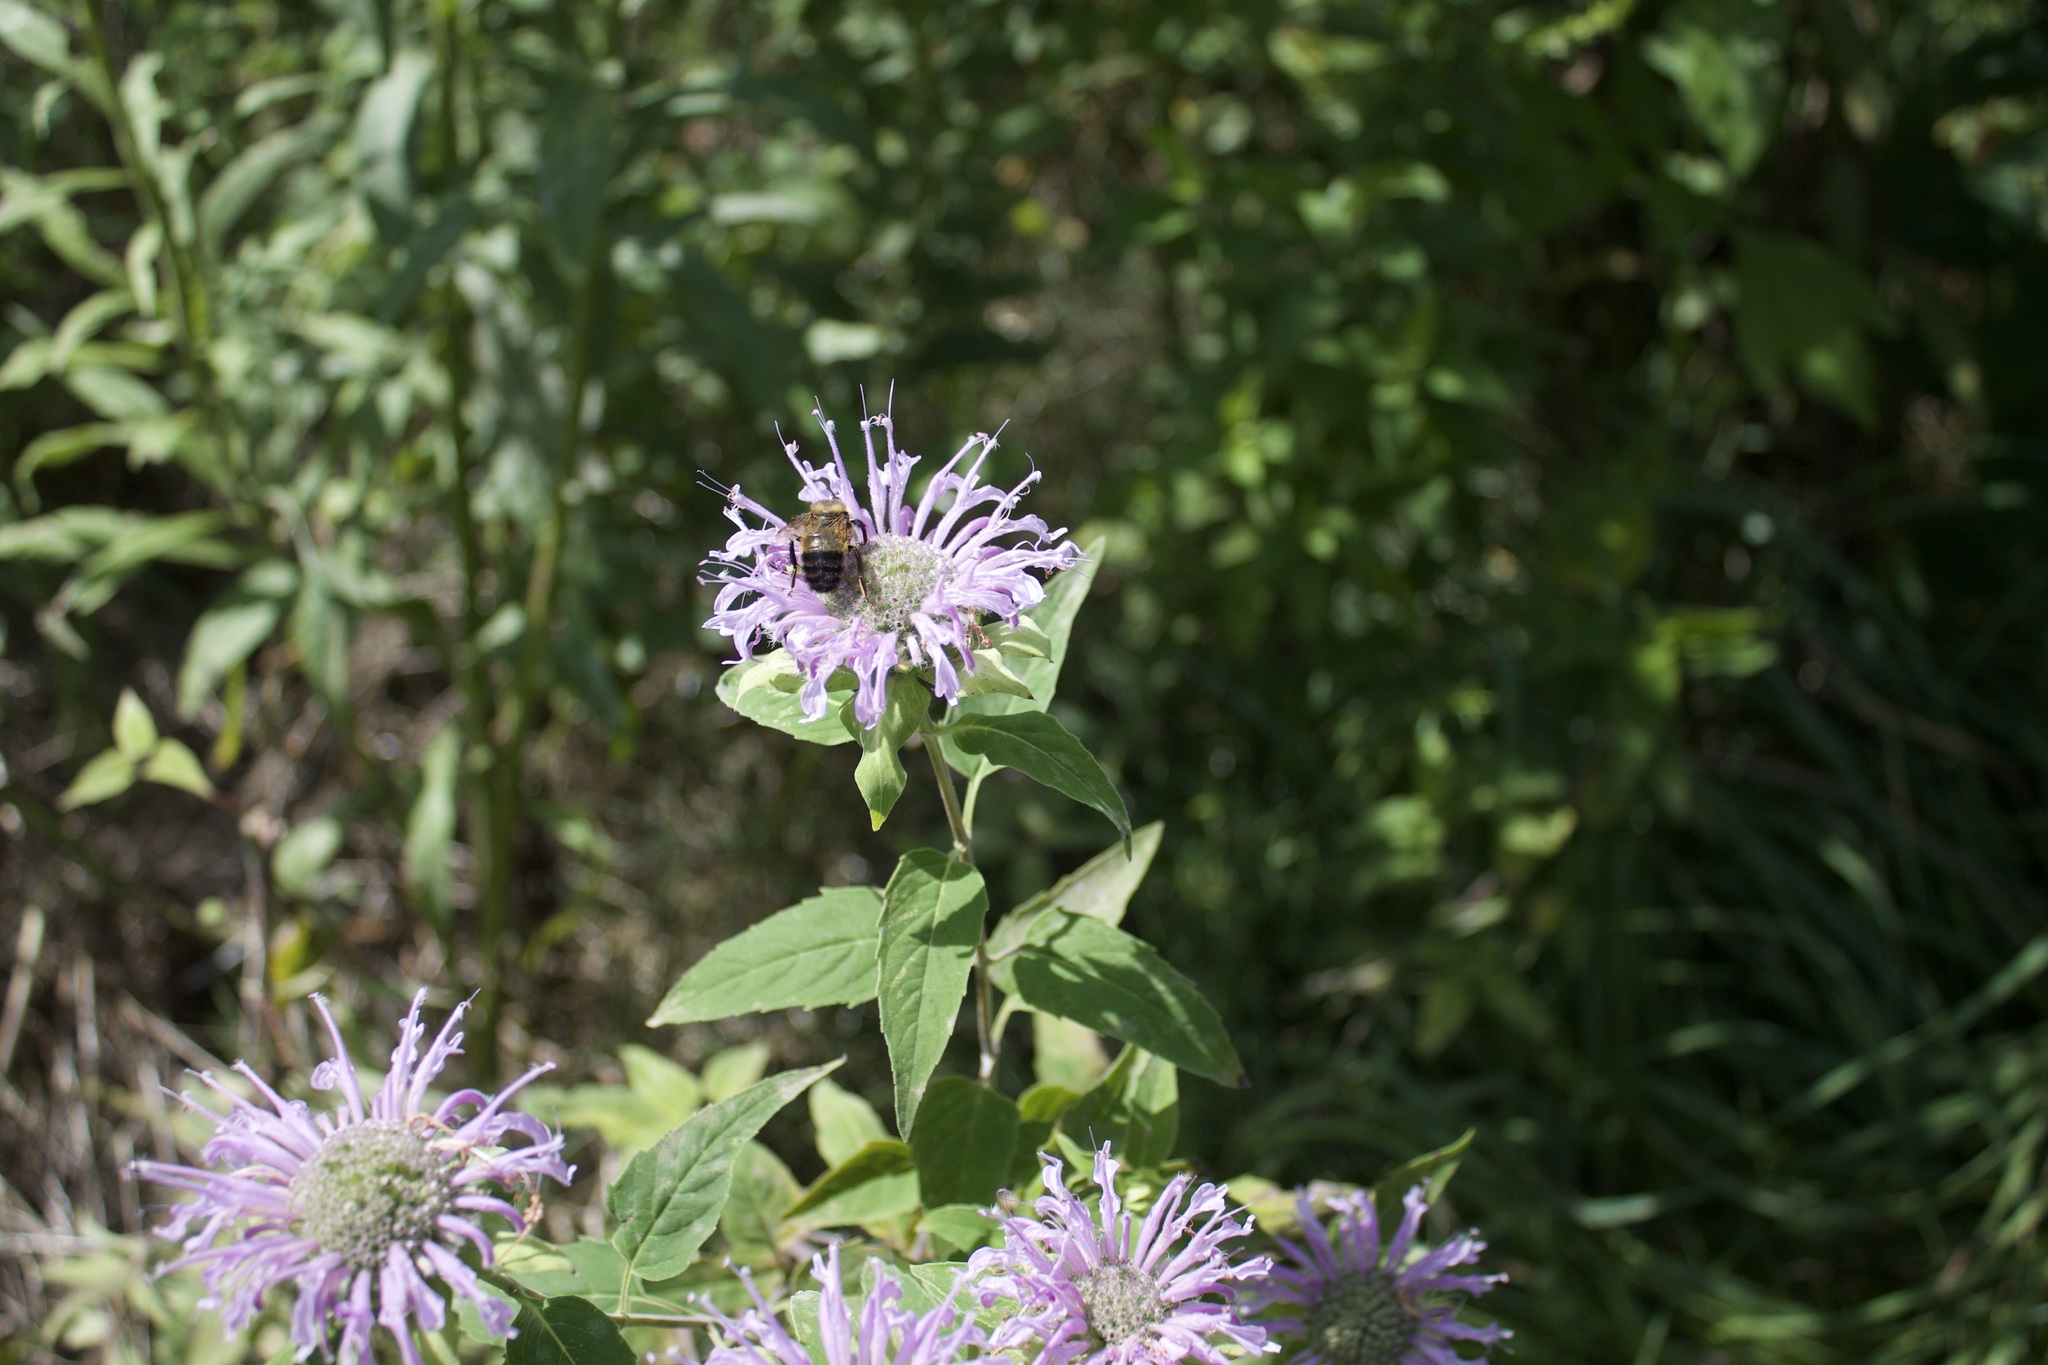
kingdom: Animalia
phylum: Arthropoda
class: Insecta
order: Hymenoptera
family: Apidae
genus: Bombus
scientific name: Bombus rufocinctus
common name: Red-belted bumble bee
